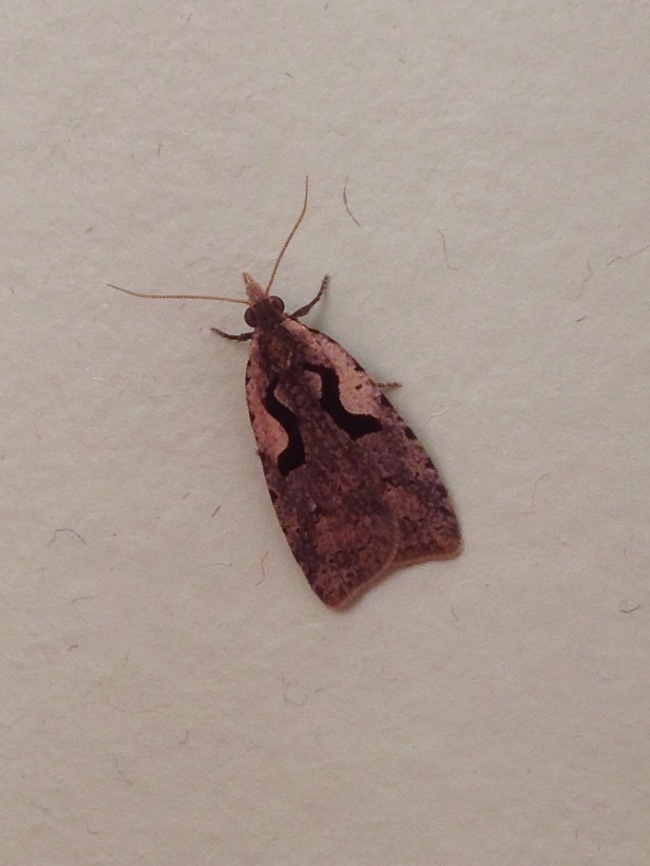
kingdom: Animalia
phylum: Arthropoda
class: Insecta
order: Lepidoptera
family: Tortricidae
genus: Cnephasia
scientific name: Cnephasia jactatana
